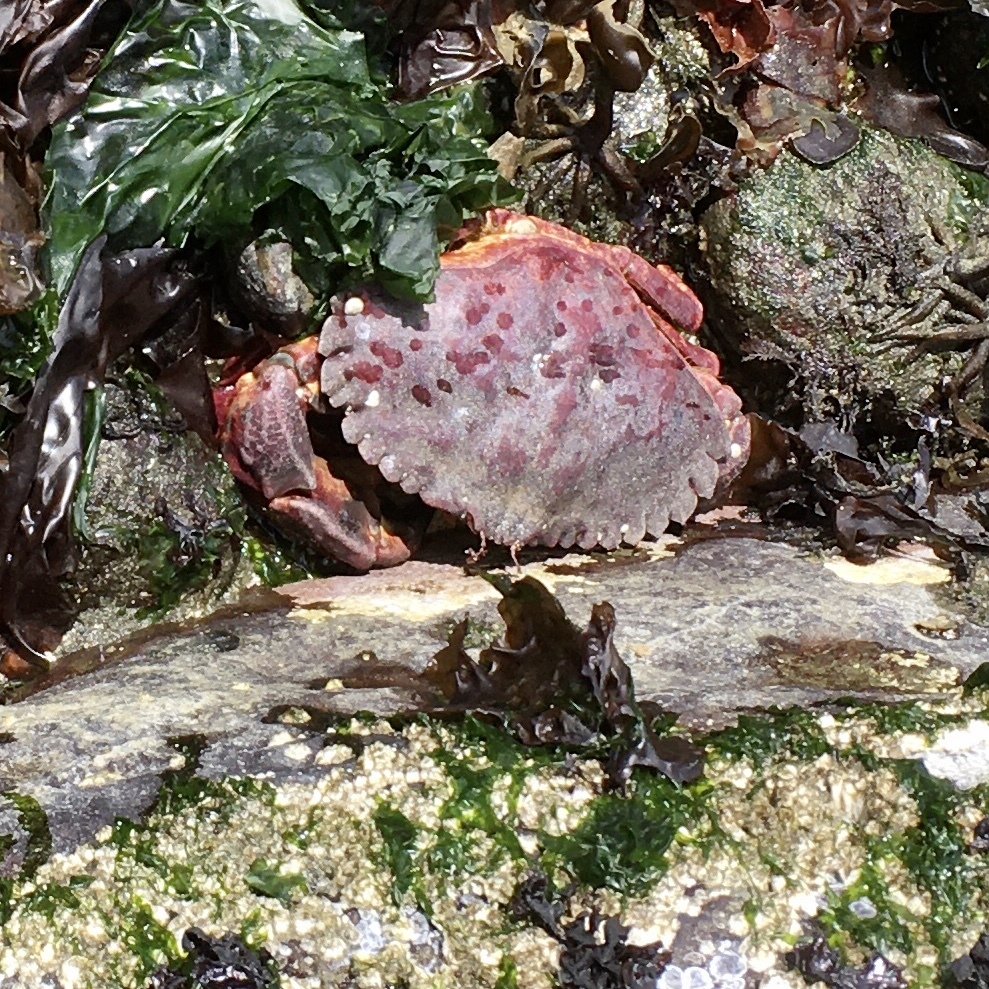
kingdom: Animalia
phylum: Arthropoda
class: Malacostraca
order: Decapoda
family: Cancridae
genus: Cancer
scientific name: Cancer productus
